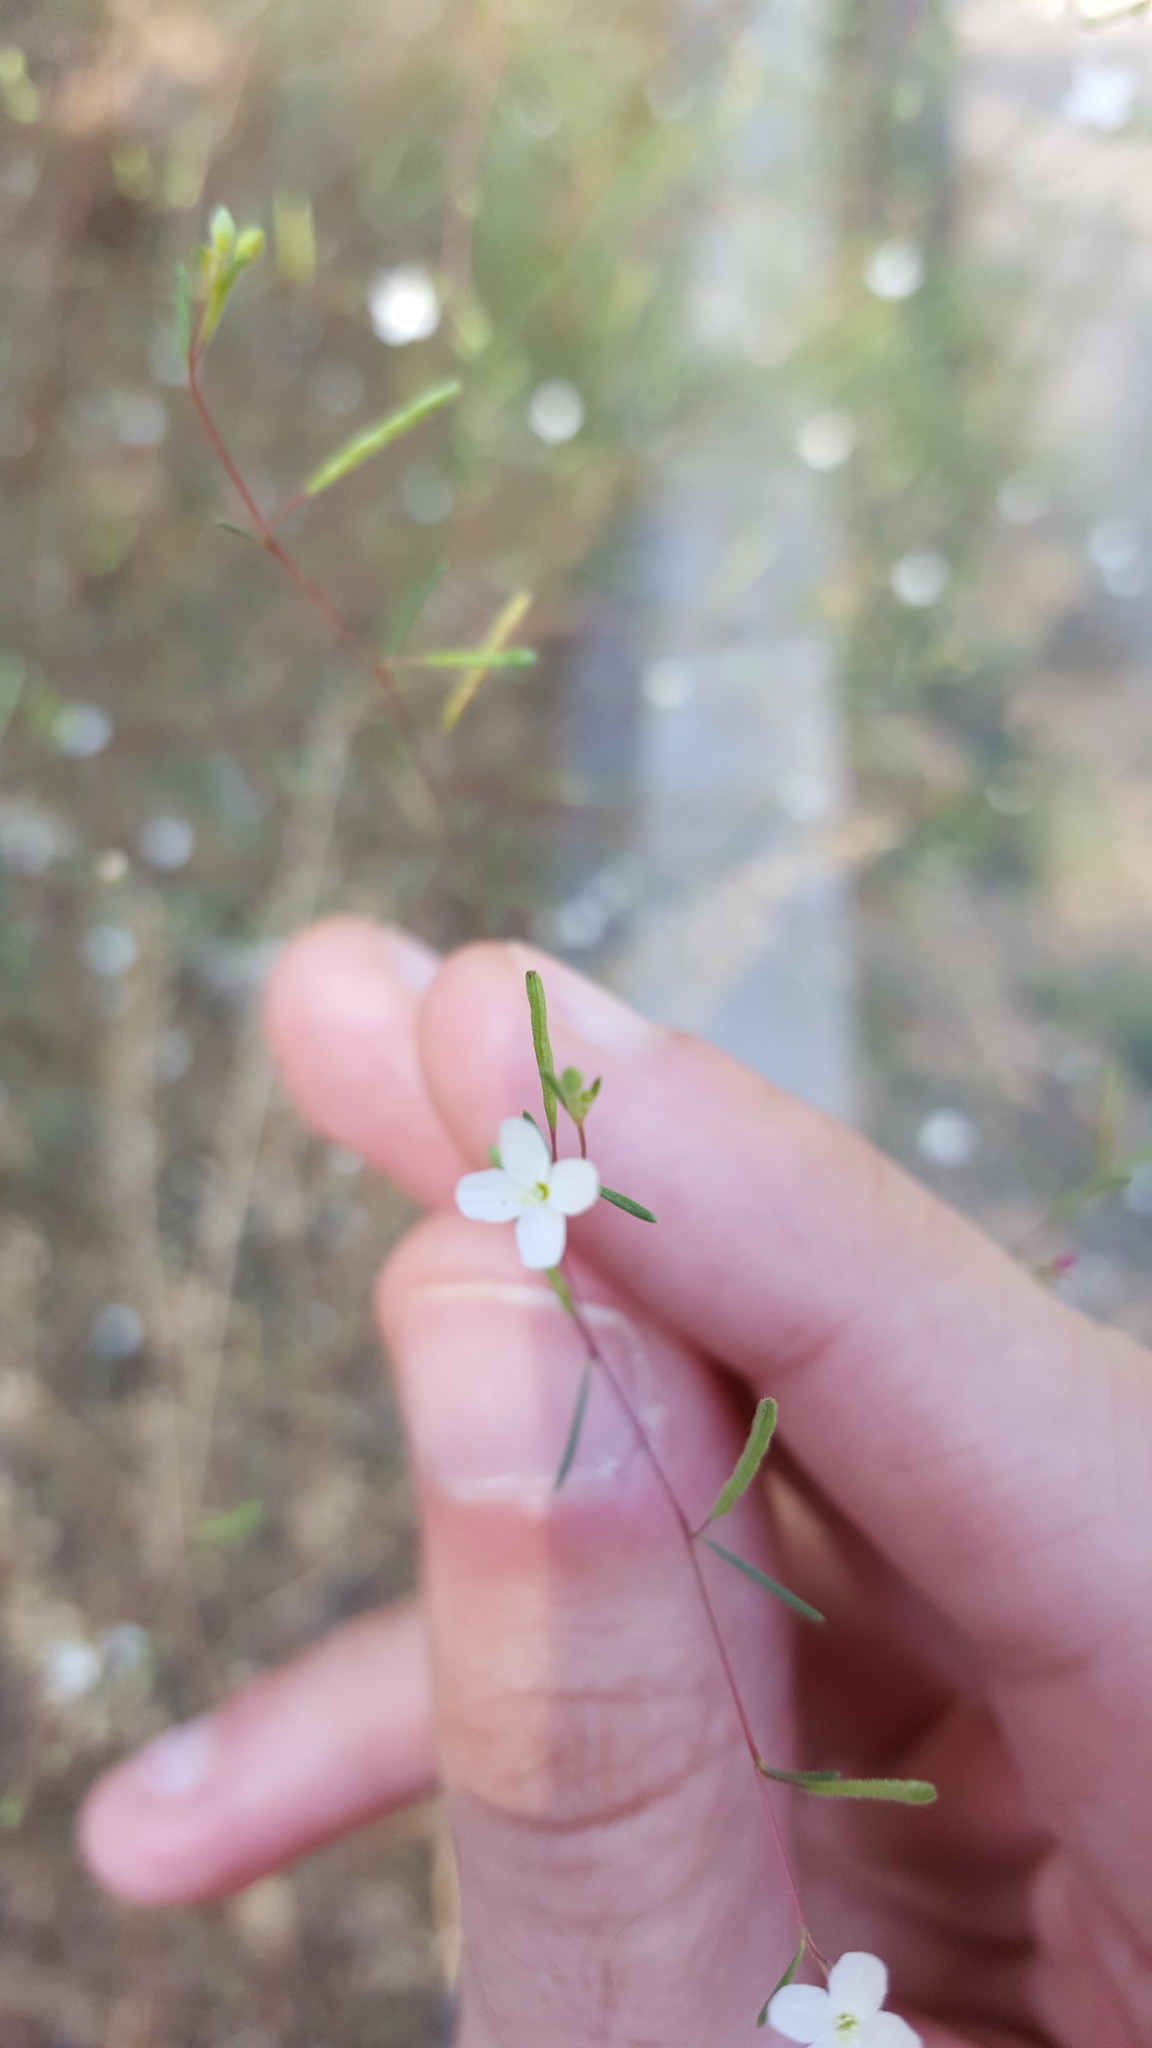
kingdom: Plantae
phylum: Tracheophyta
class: Magnoliopsida
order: Myrtales
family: Onagraceae
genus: Gayophytum
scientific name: Gayophytum diffusum
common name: Big-flowered groundsmoke
